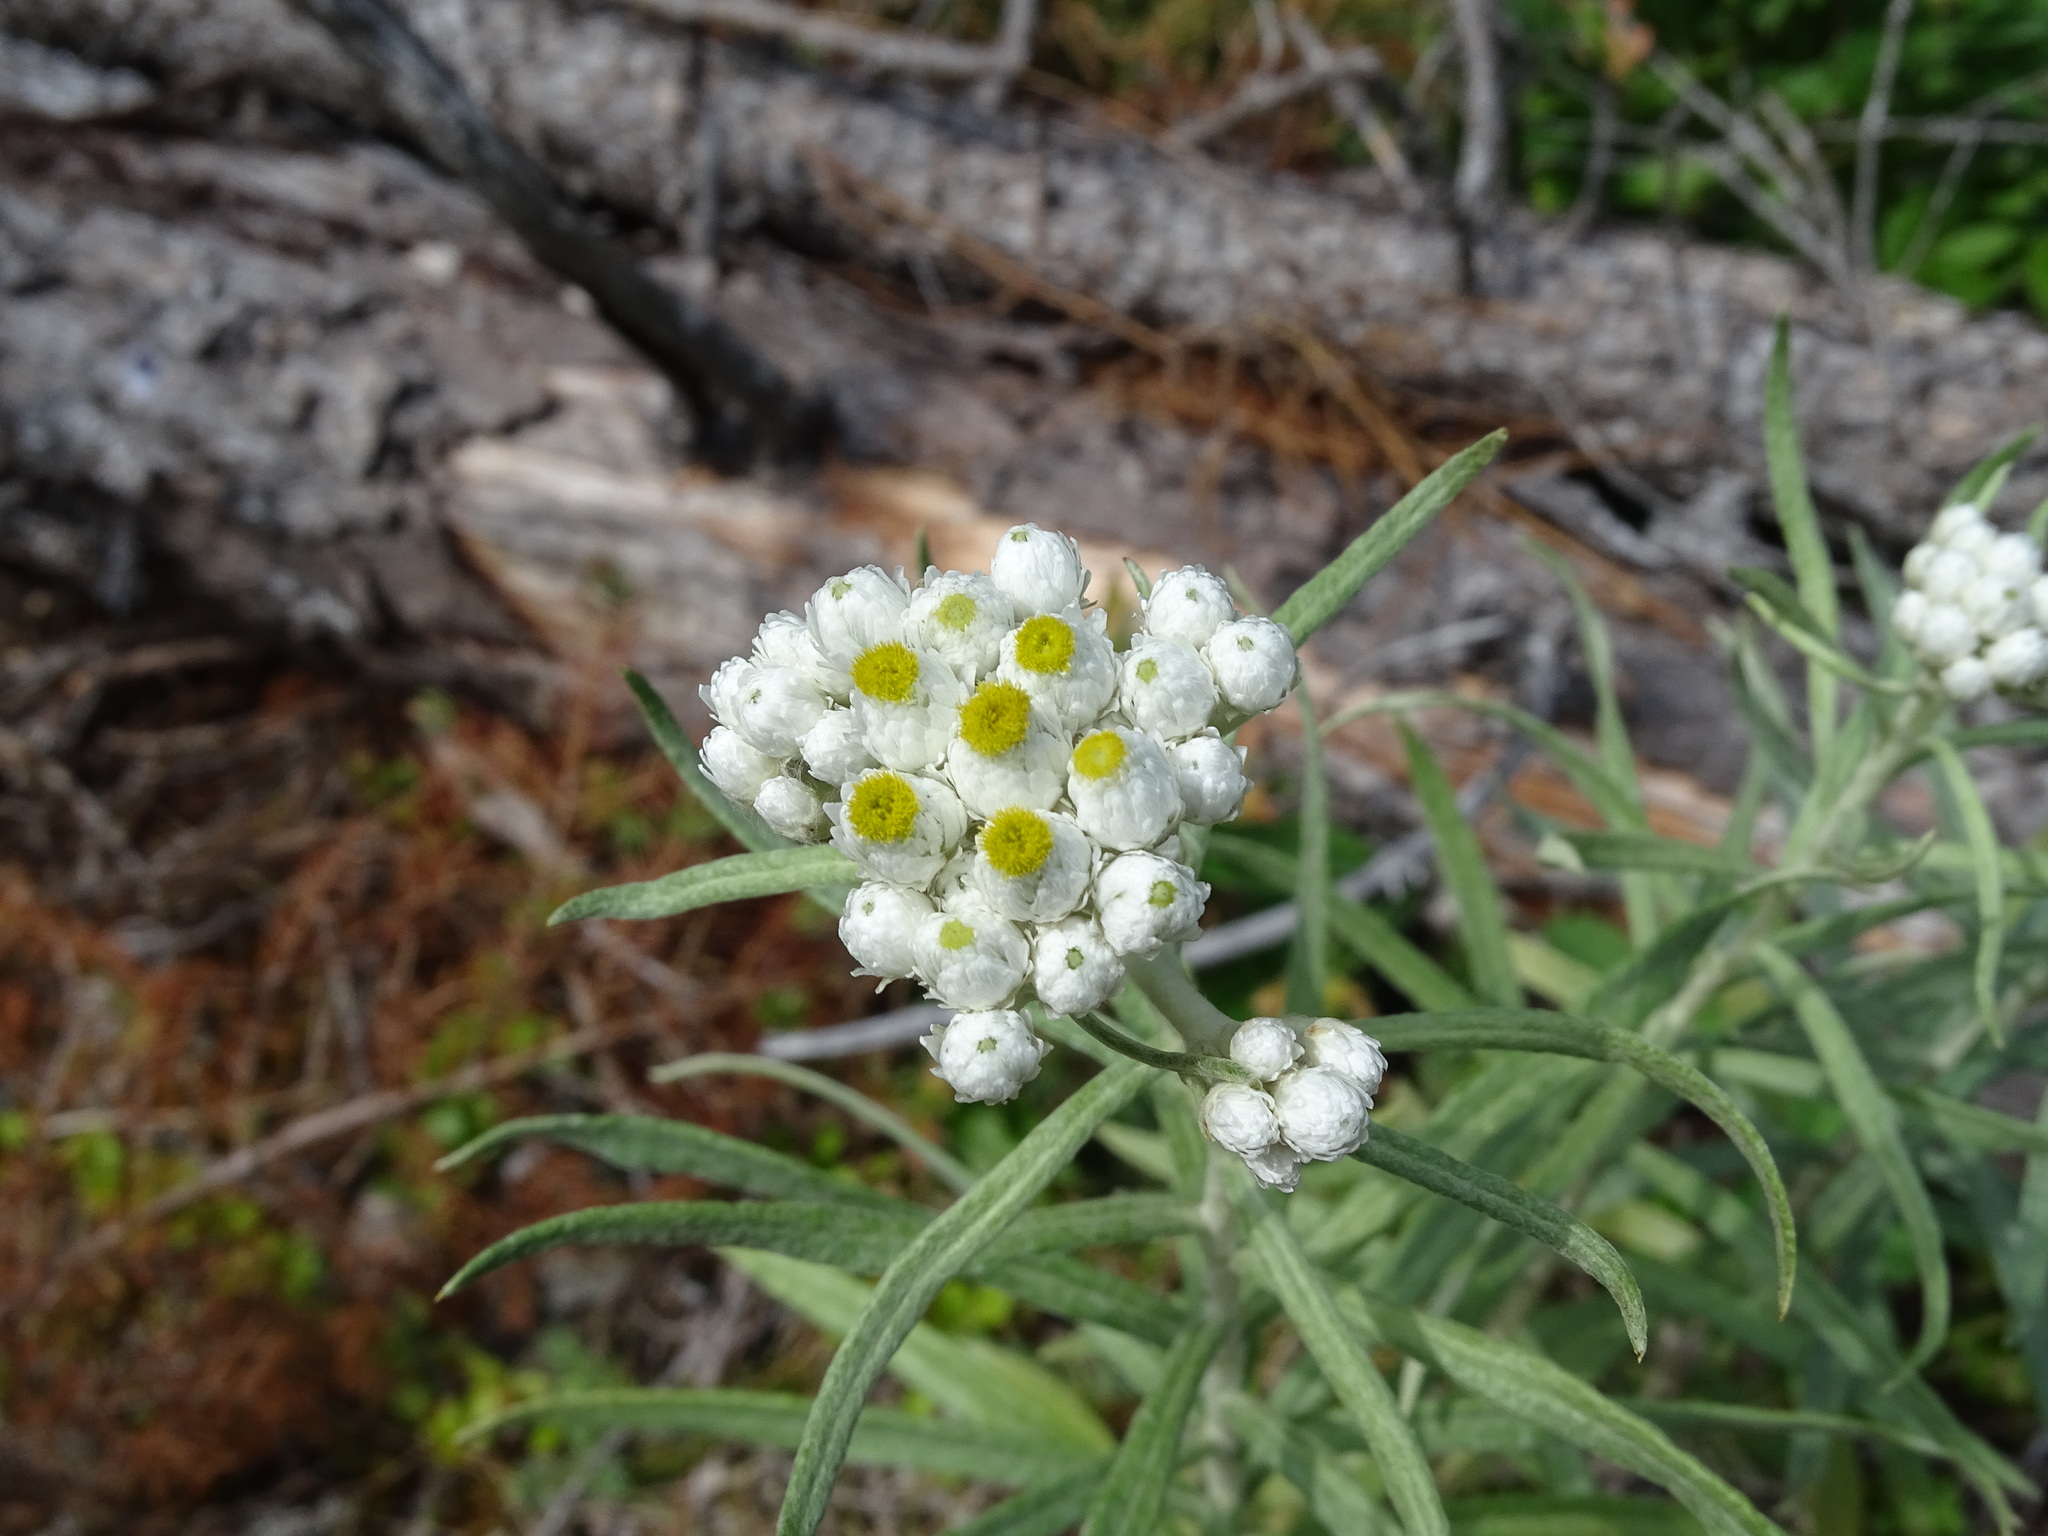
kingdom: Plantae
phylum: Tracheophyta
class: Magnoliopsida
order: Asterales
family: Asteraceae
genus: Anaphalis
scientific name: Anaphalis margaritacea
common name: Pearly everlasting
